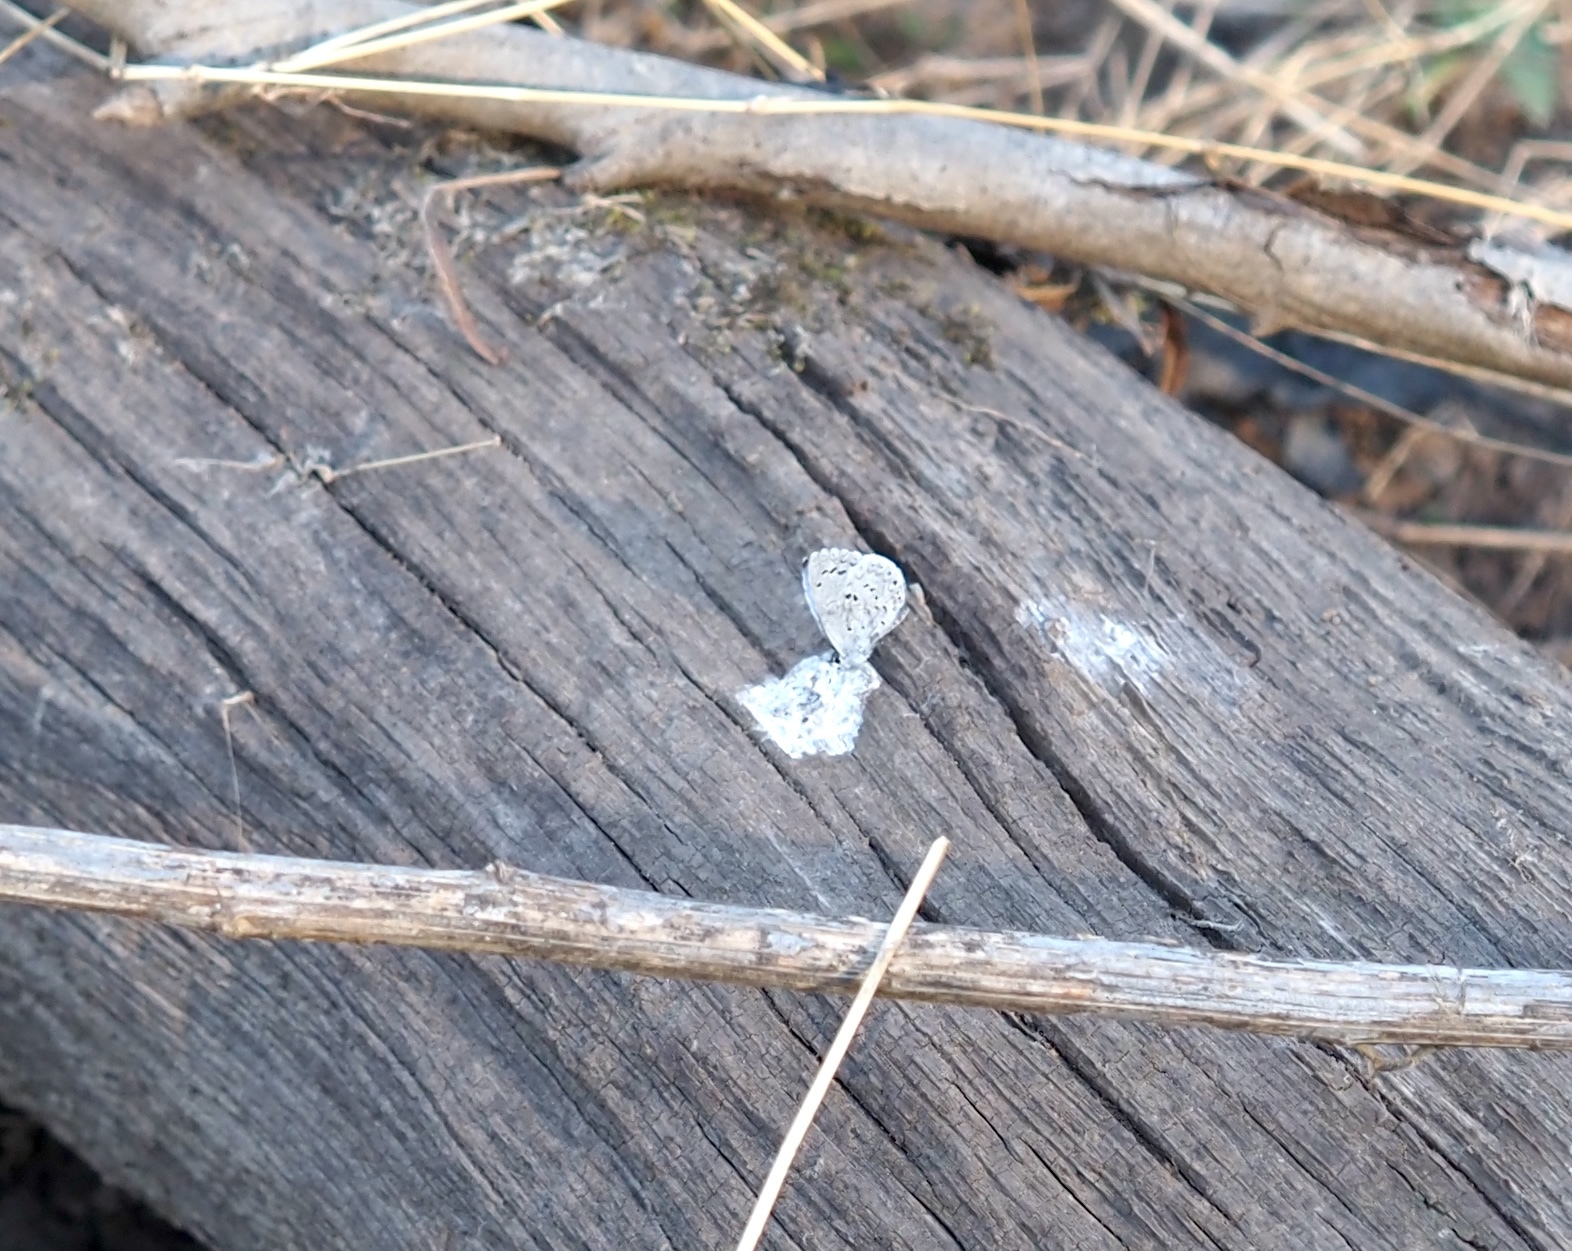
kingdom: Animalia
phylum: Arthropoda
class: Insecta
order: Lepidoptera
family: Lycaenidae
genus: Cyaniris
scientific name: Cyaniris neglecta
